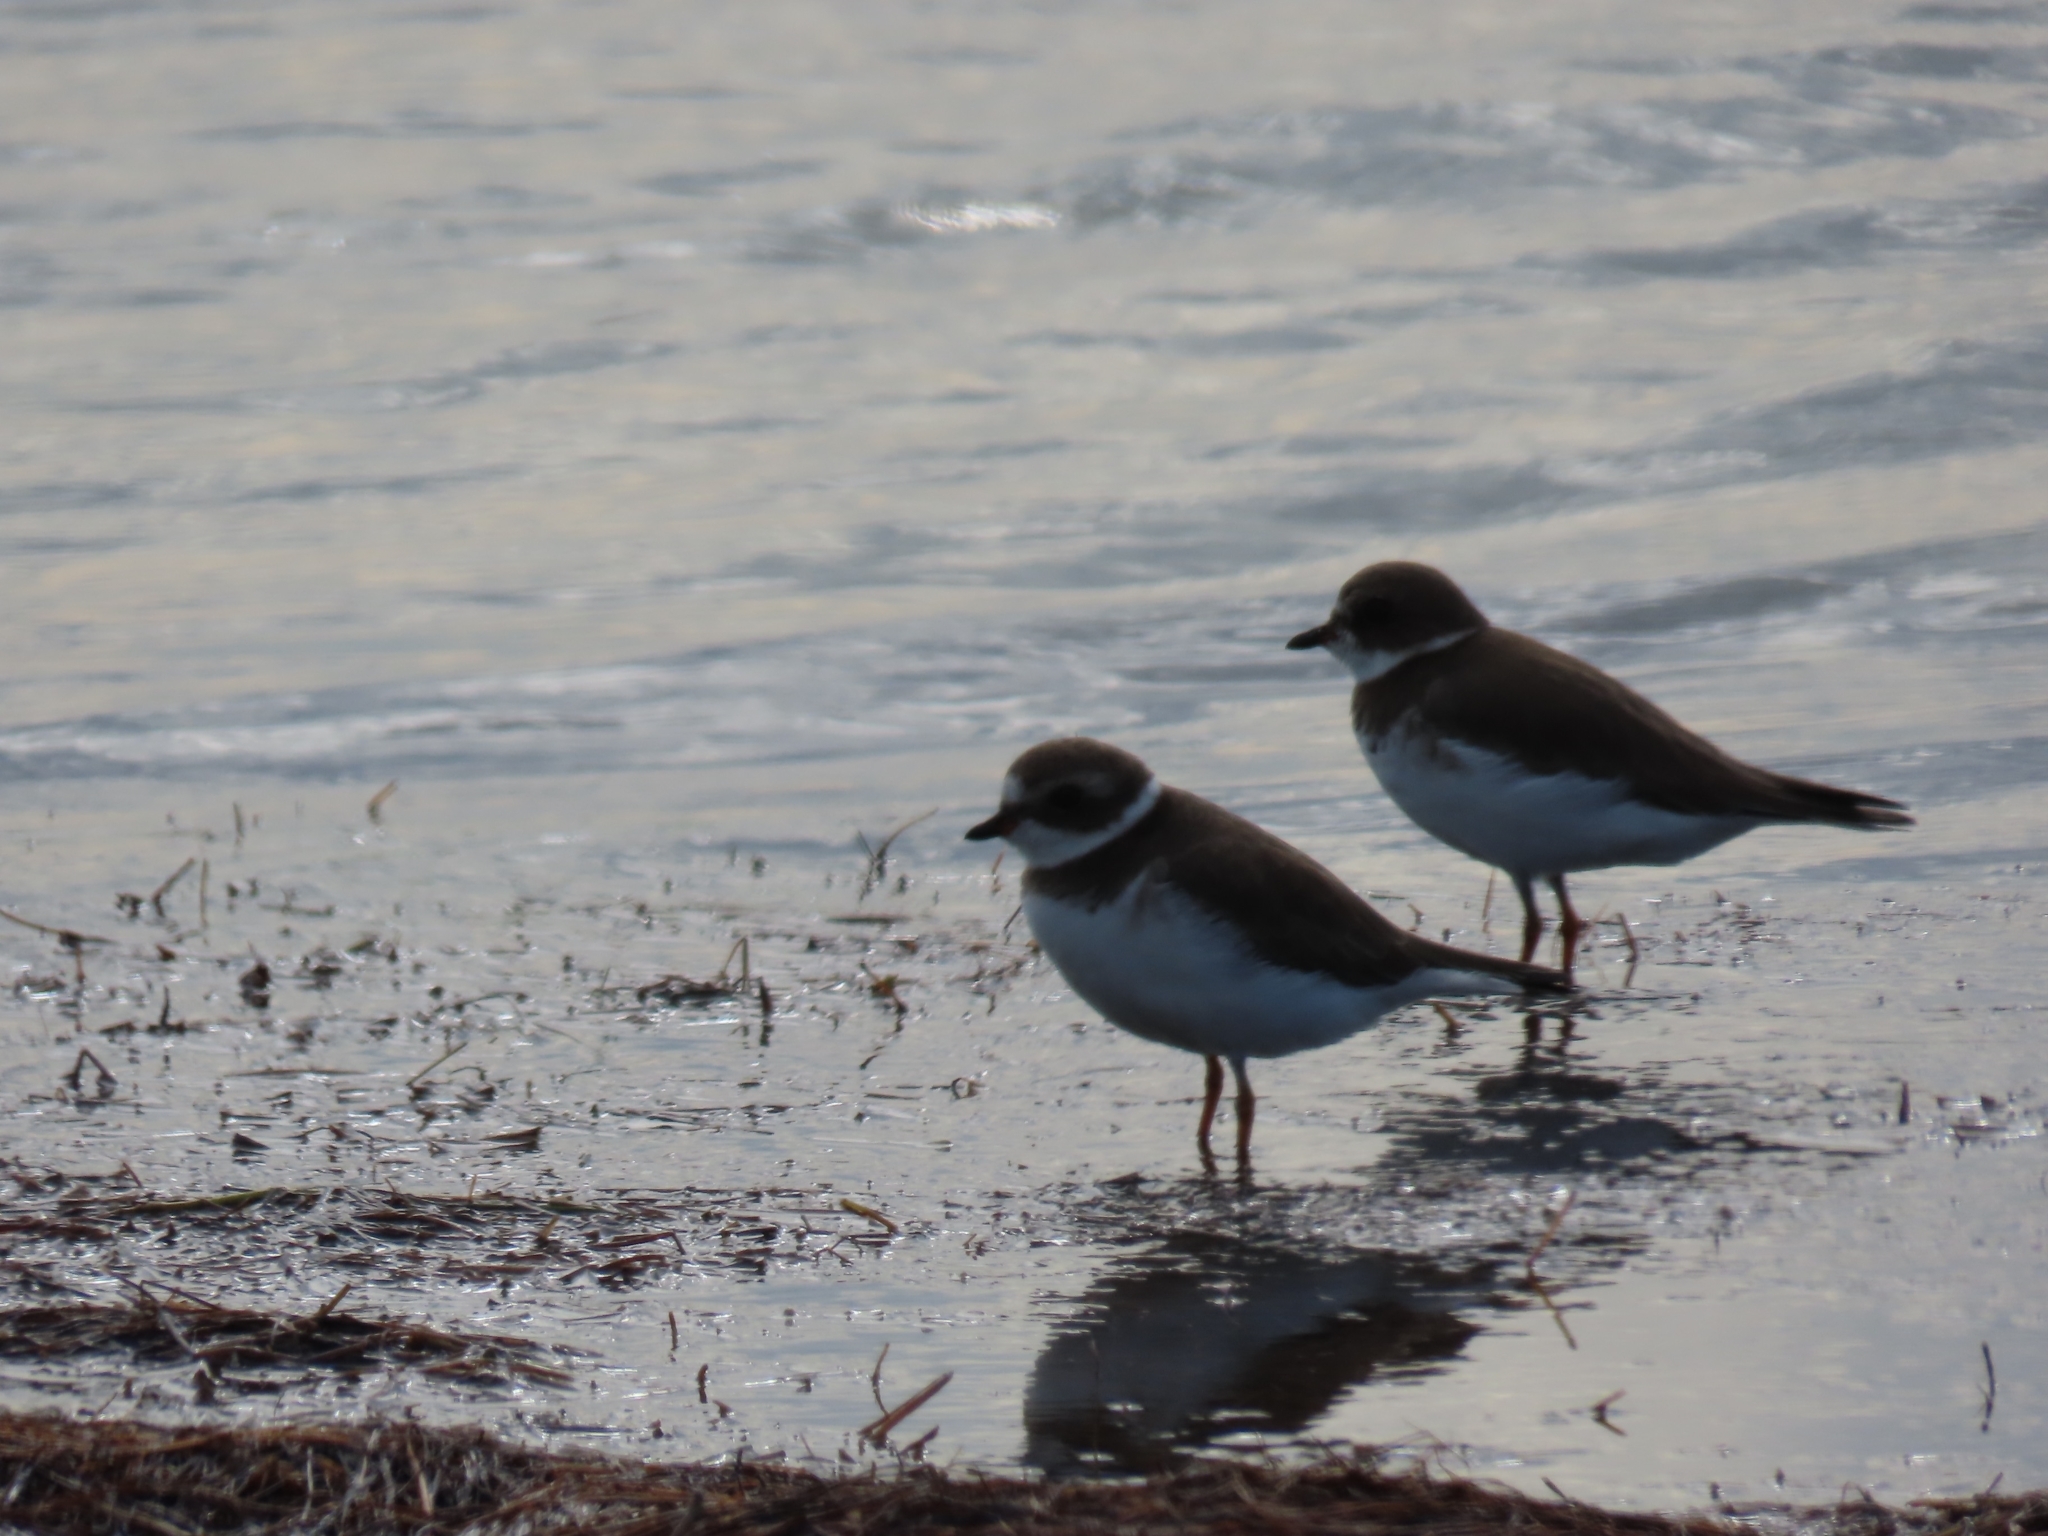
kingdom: Animalia
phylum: Chordata
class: Aves
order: Charadriiformes
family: Charadriidae
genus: Charadrius
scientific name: Charadrius semipalmatus
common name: Semipalmated plover
